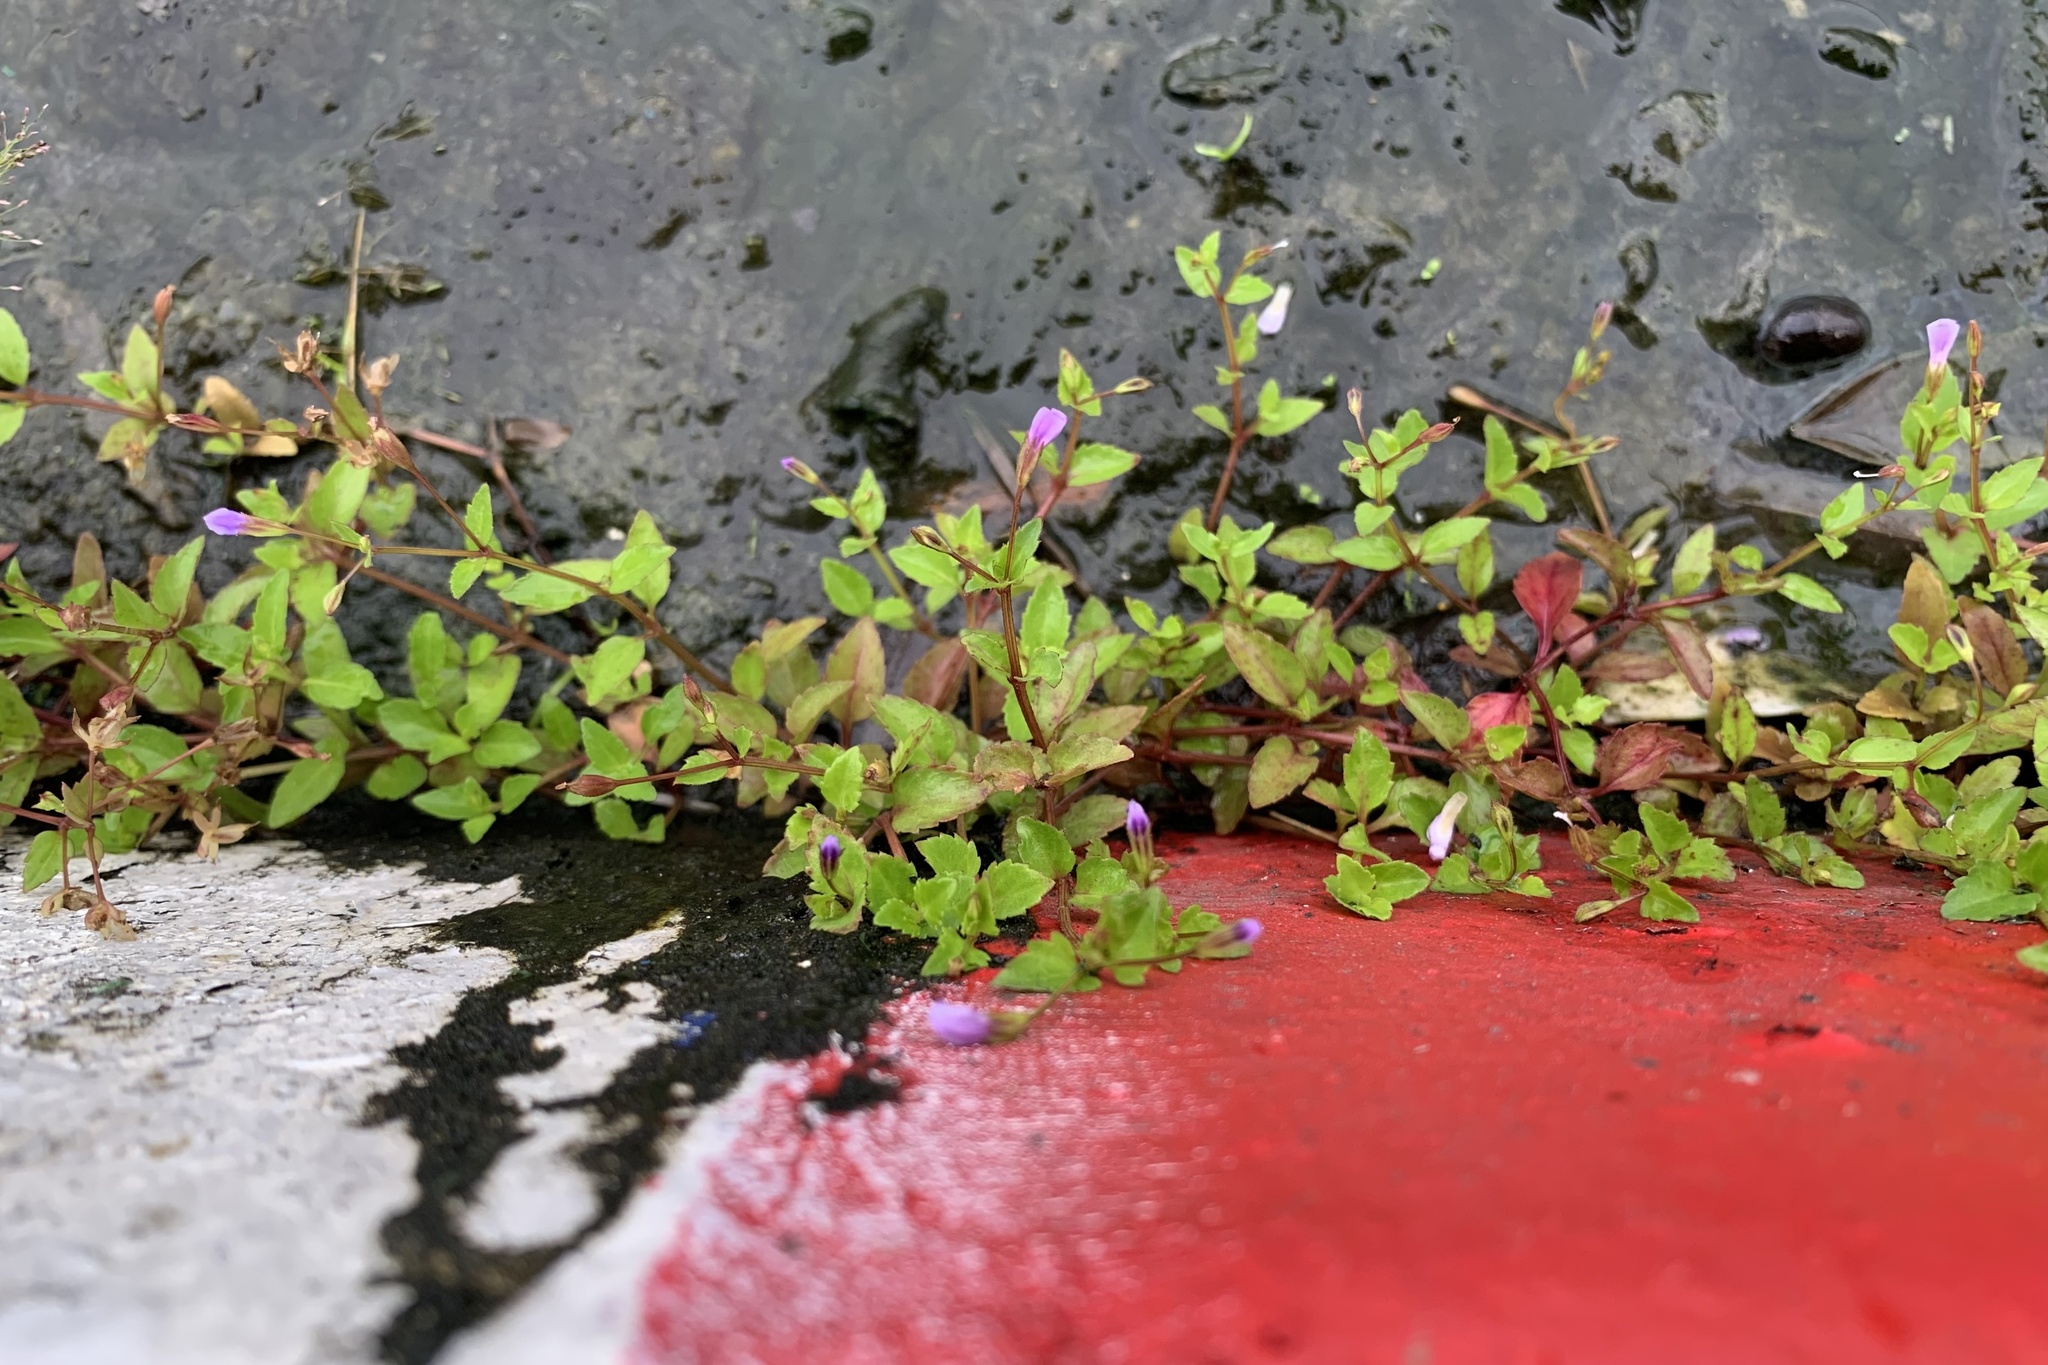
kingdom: Plantae
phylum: Tracheophyta
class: Magnoliopsida
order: Lamiales
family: Linderniaceae
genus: Torenia
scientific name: Torenia crustacea
